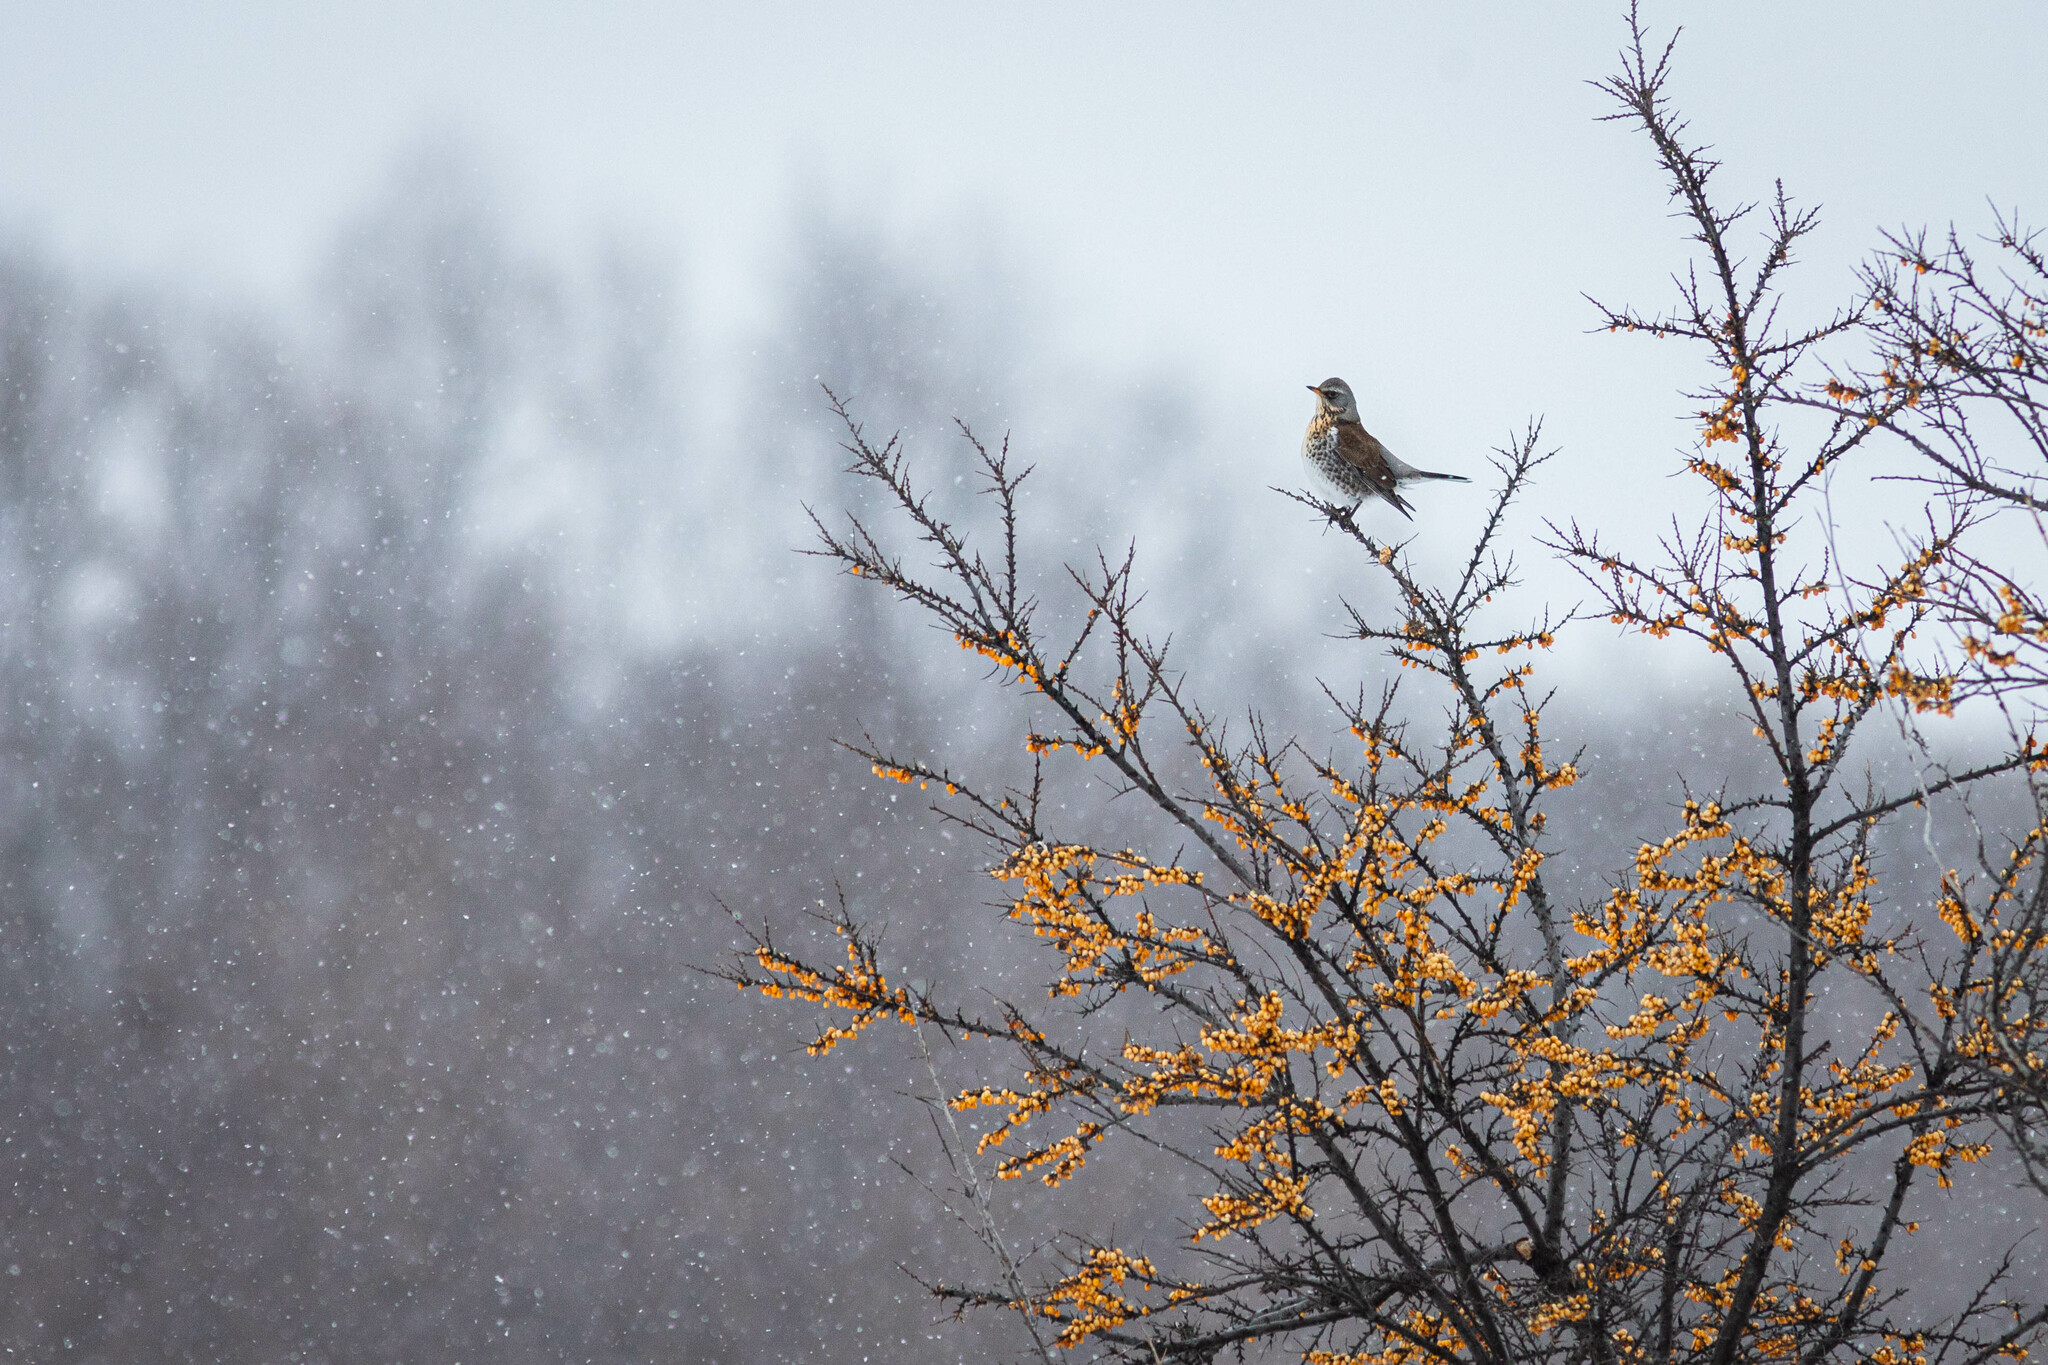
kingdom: Animalia
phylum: Chordata
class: Aves
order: Passeriformes
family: Turdidae
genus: Turdus
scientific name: Turdus pilaris
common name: Fieldfare
